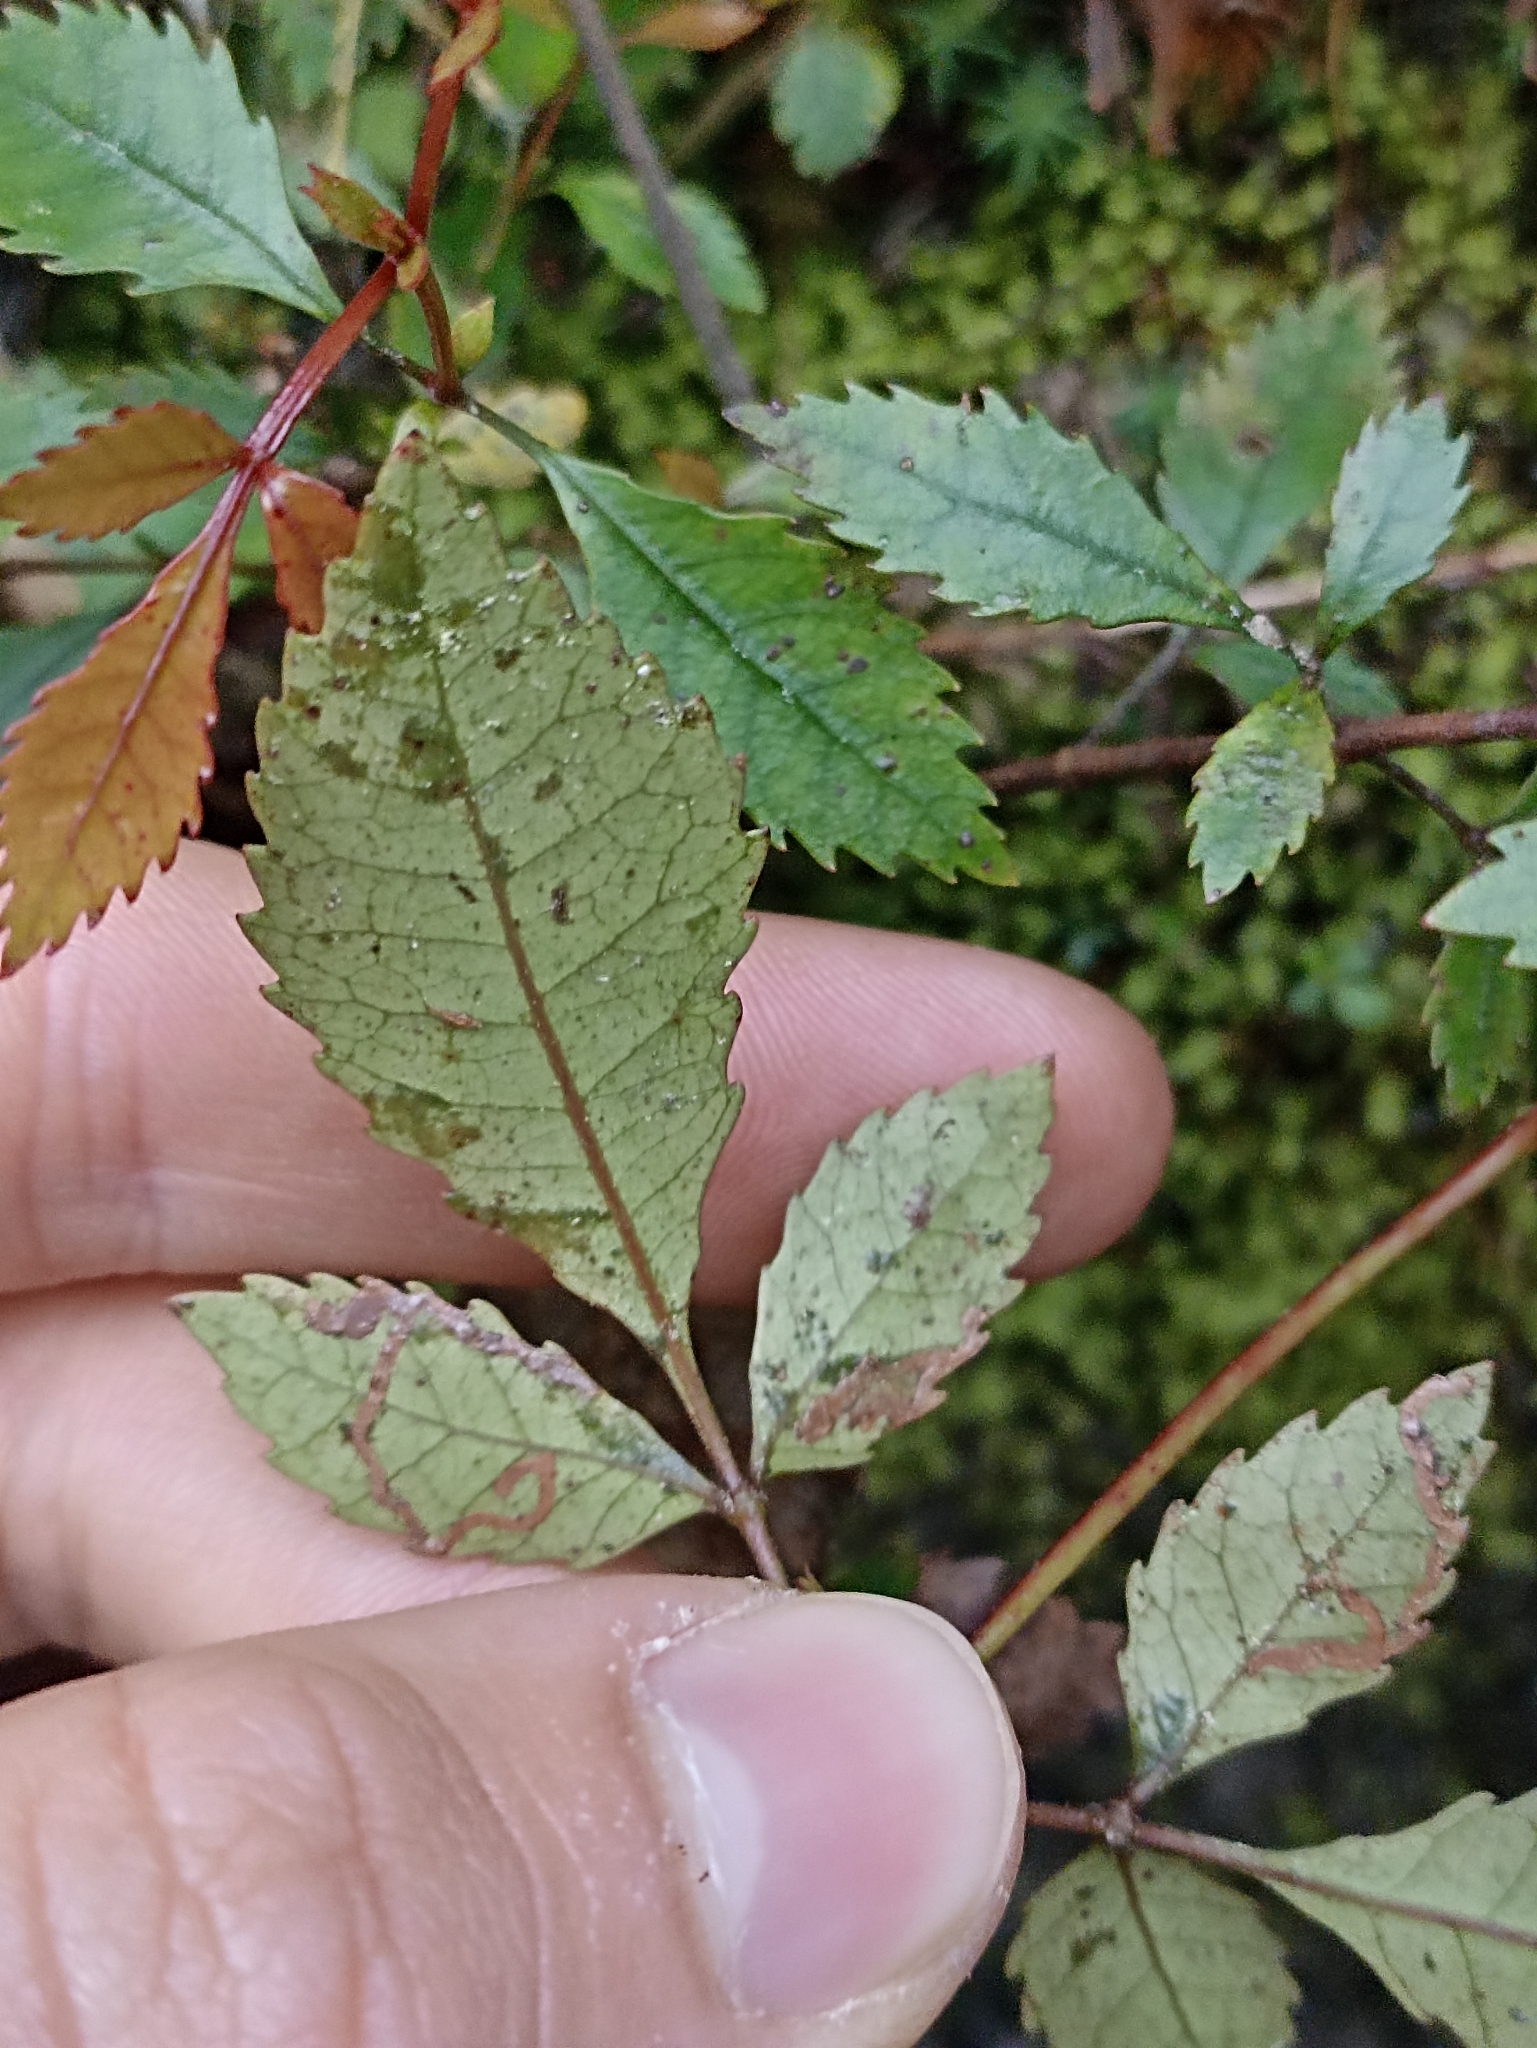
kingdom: Plantae
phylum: Tracheophyta
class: Magnoliopsida
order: Oxalidales
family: Cunoniaceae
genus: Pterophylla
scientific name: Pterophylla racemosa
